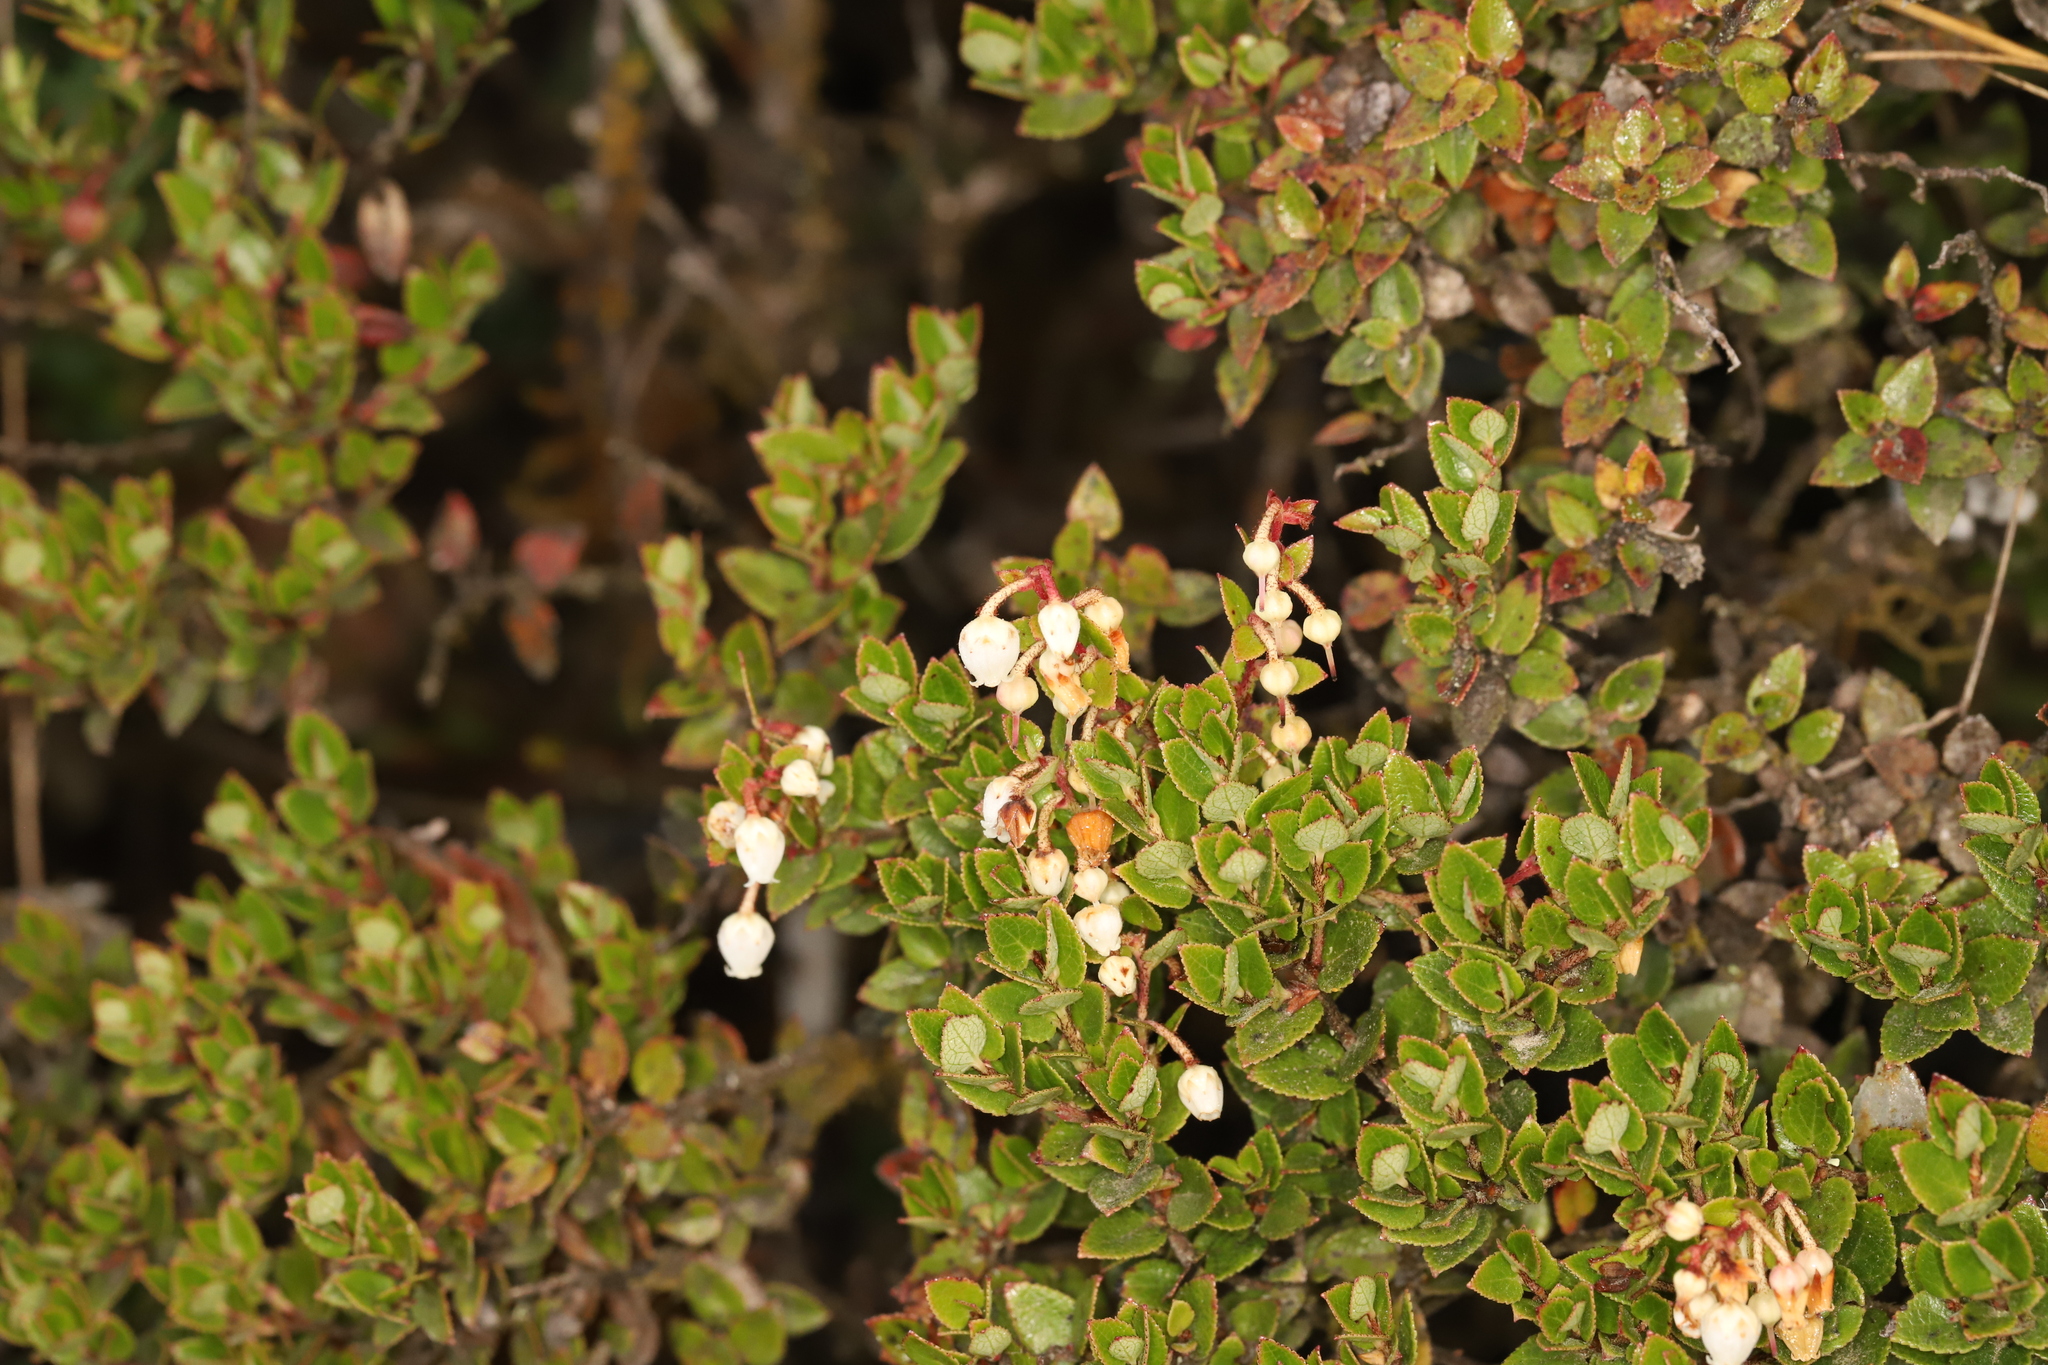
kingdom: Plantae
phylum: Tracheophyta
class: Magnoliopsida
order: Ericales
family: Ericaceae
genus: Gaultheria
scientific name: Gaultheria myrsinoides
